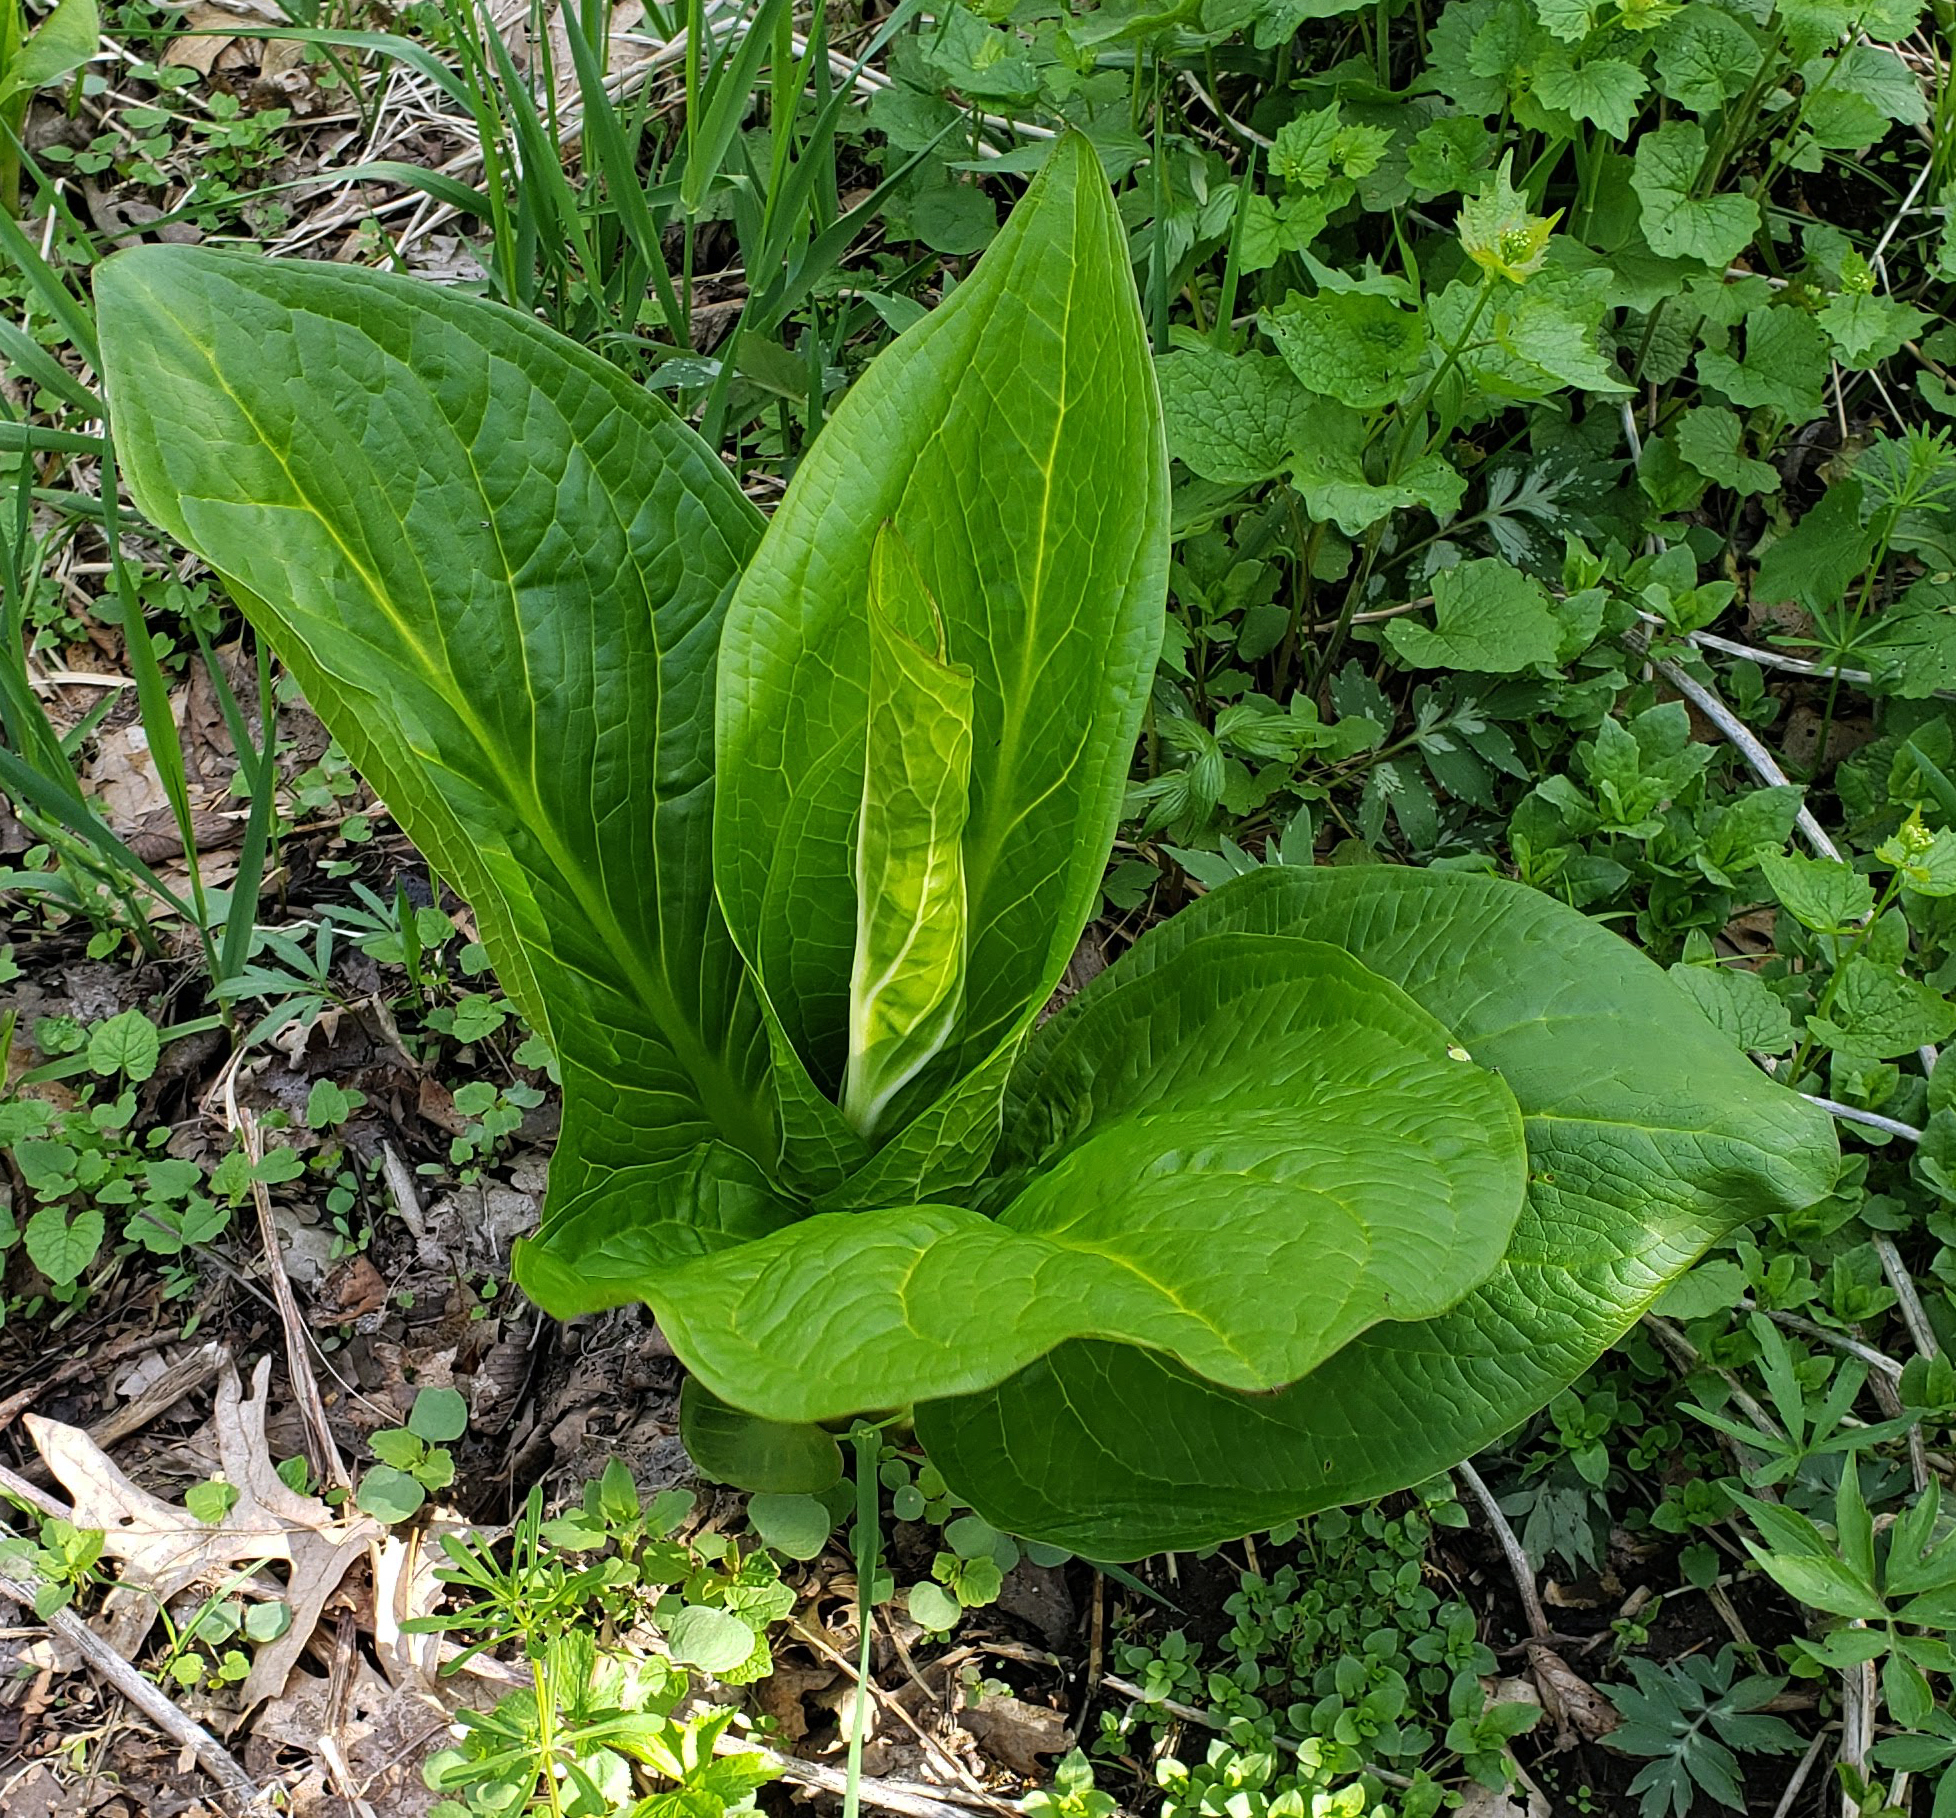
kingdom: Plantae
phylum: Tracheophyta
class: Liliopsida
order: Alismatales
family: Araceae
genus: Symplocarpus
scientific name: Symplocarpus foetidus
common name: Eastern skunk cabbage
